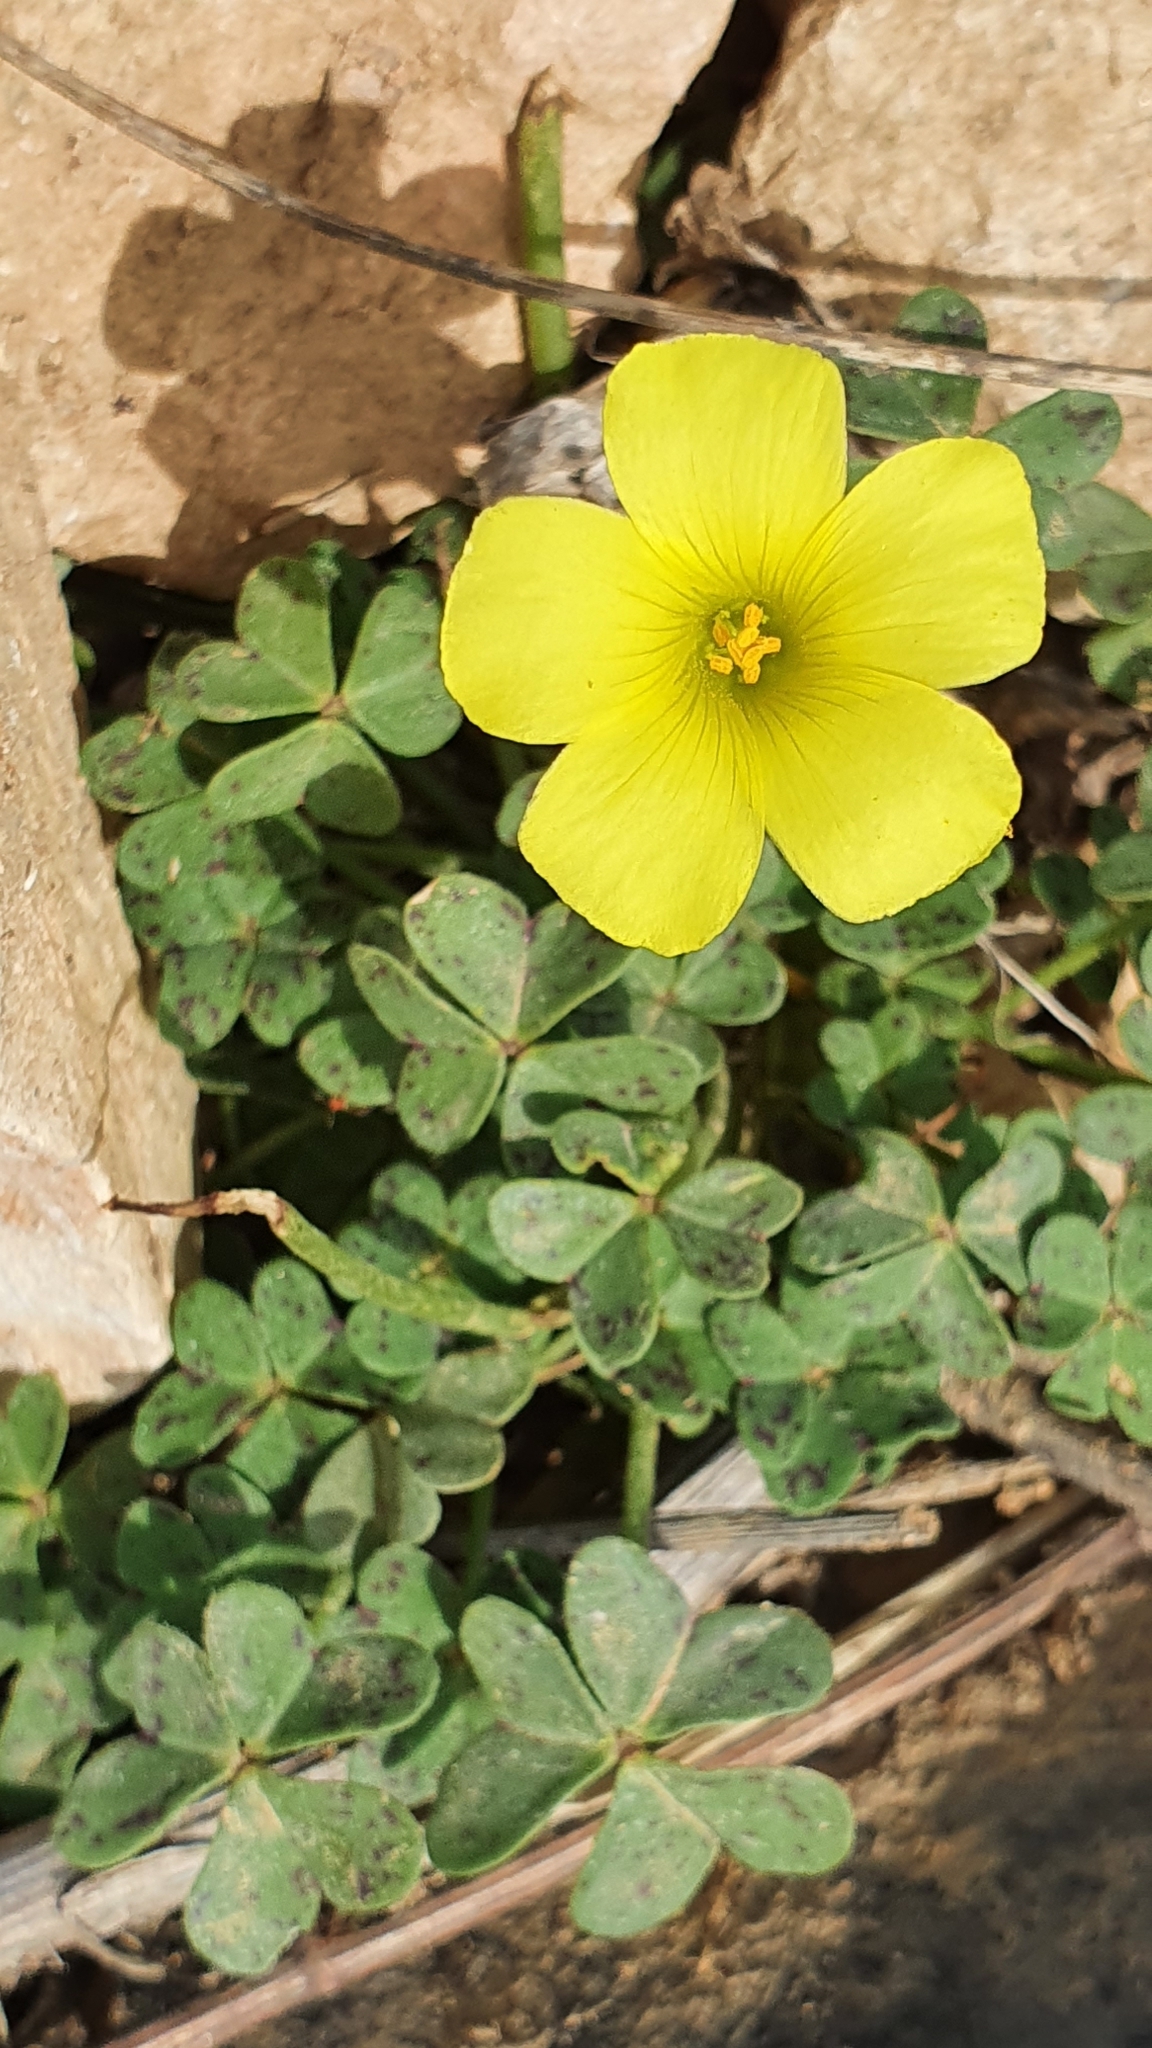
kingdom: Plantae
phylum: Tracheophyta
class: Magnoliopsida
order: Oxalidales
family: Oxalidaceae
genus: Oxalis
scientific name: Oxalis pes-caprae
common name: Bermuda-buttercup
